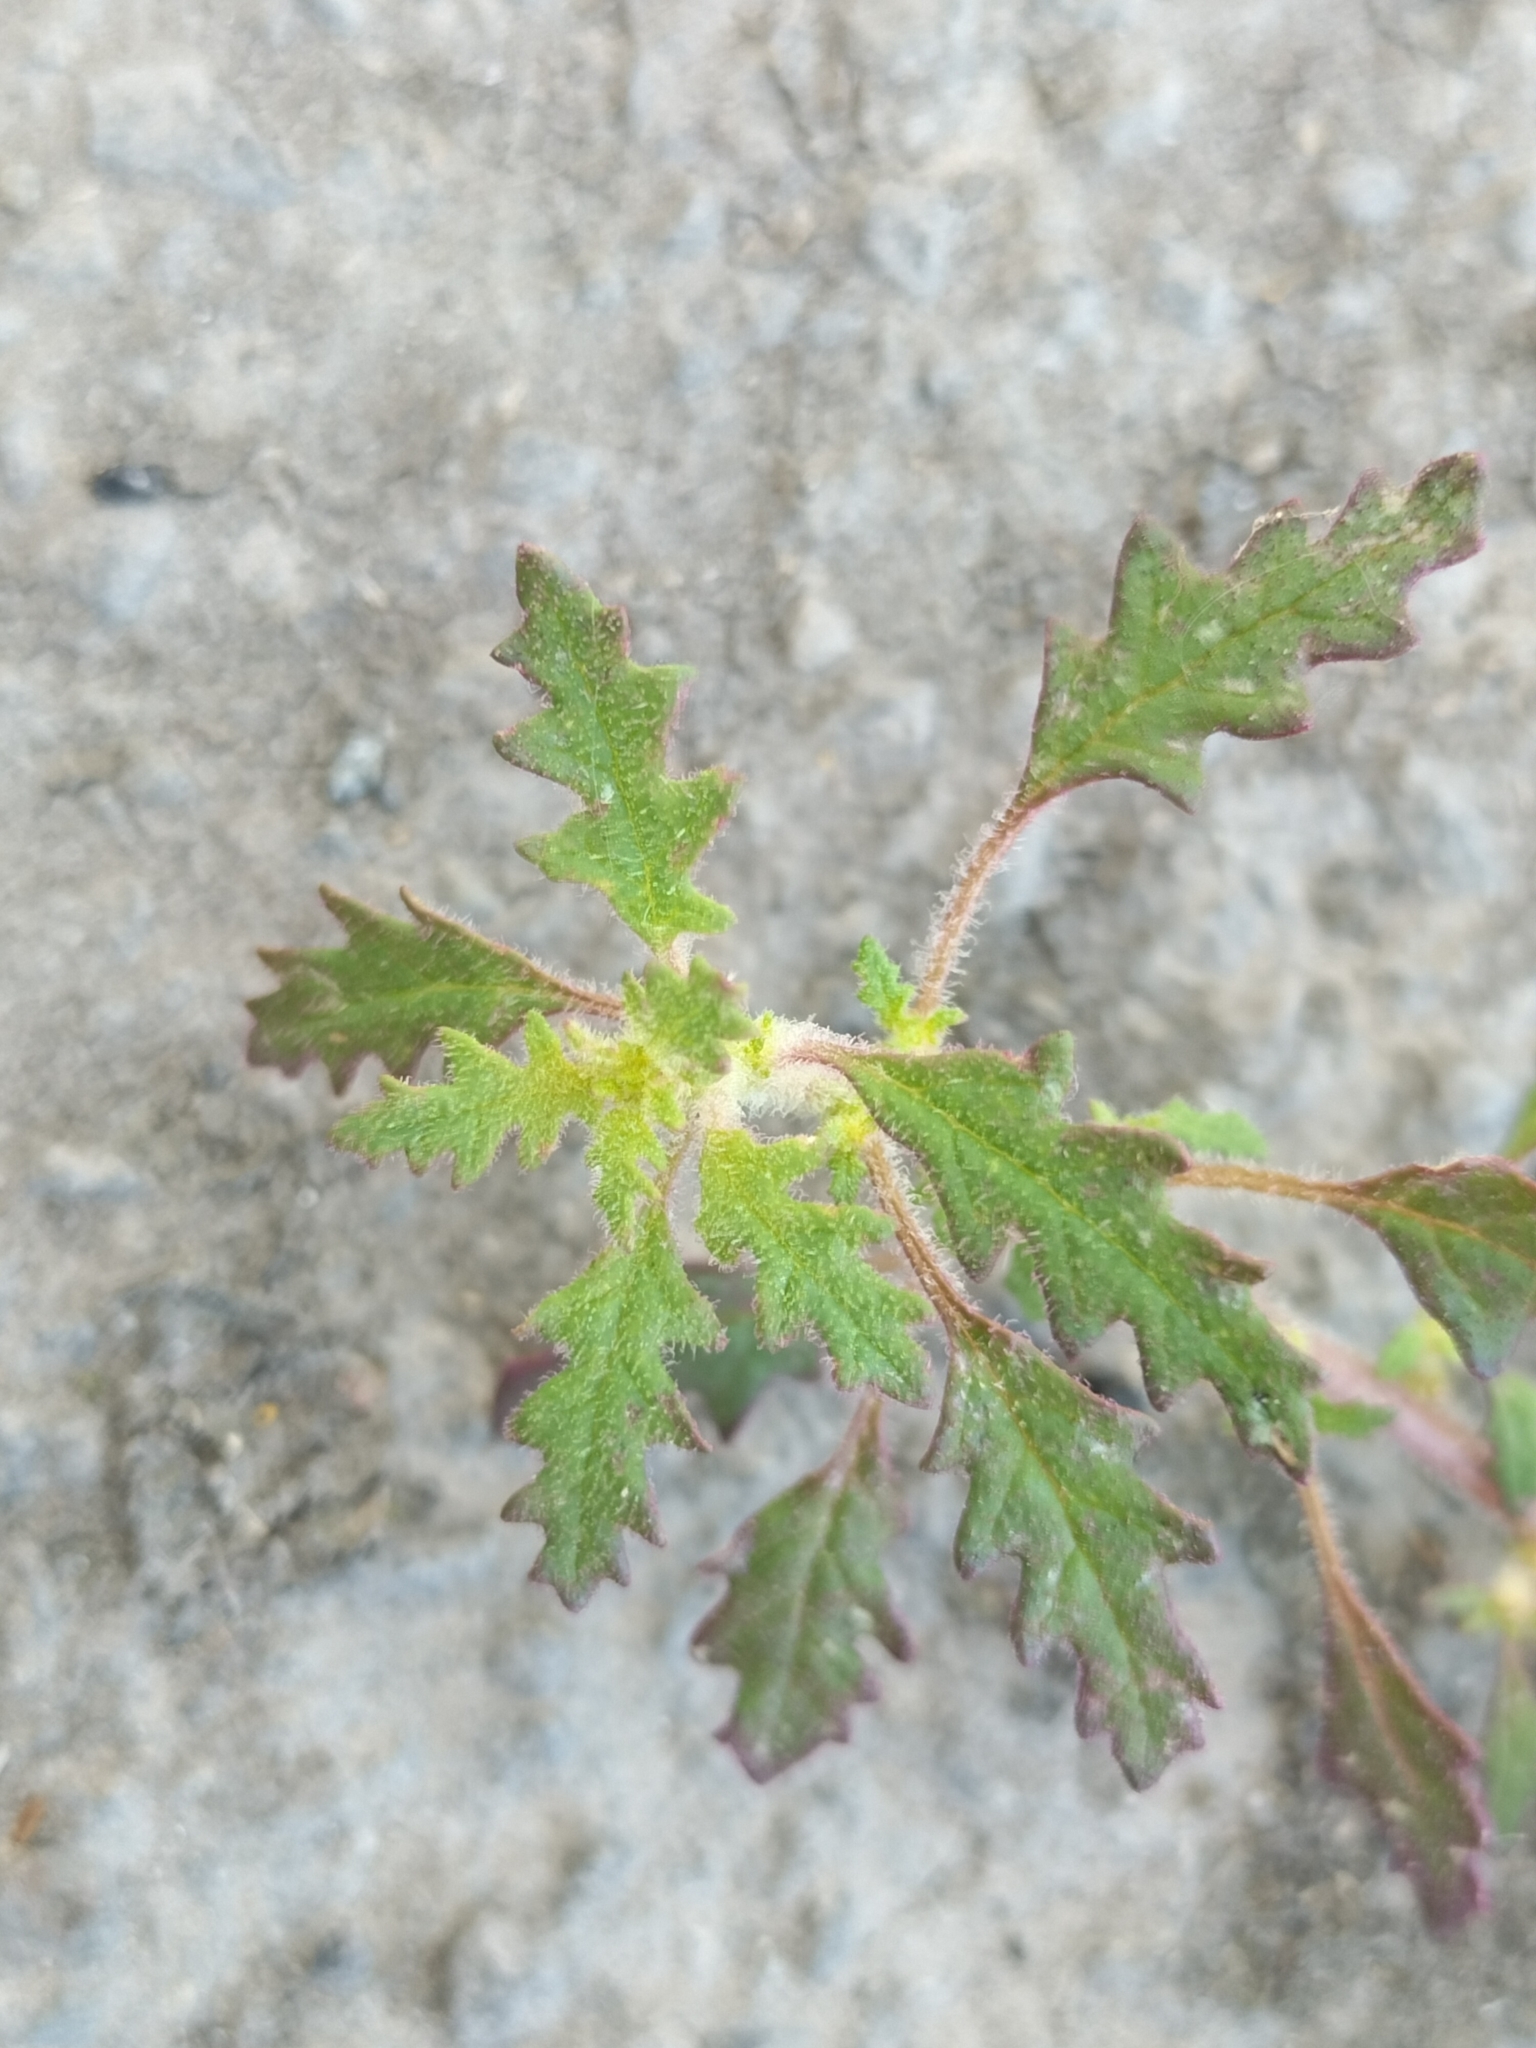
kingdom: Plantae
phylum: Tracheophyta
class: Magnoliopsida
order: Caryophyllales
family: Amaranthaceae
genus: Dysphania
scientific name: Dysphania pumilio
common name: Clammy goosefoot
